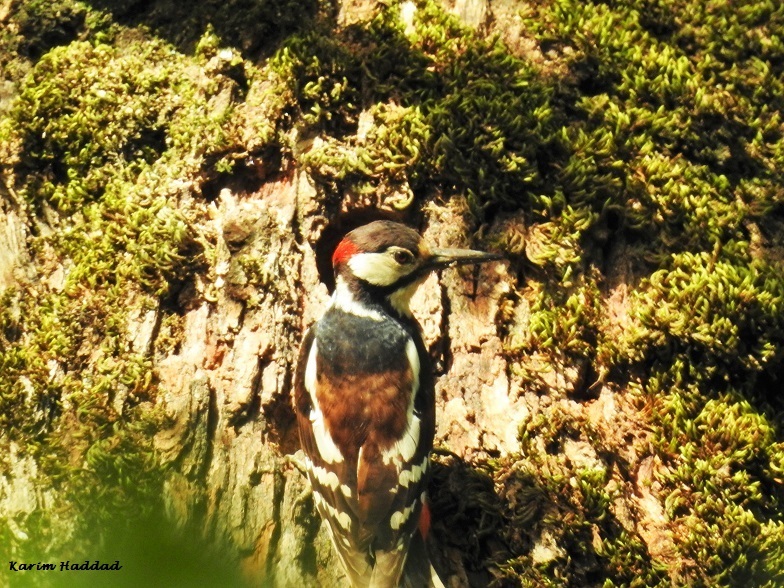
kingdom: Animalia
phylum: Chordata
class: Aves
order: Piciformes
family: Picidae
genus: Dendrocopos
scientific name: Dendrocopos major
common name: Great spotted woodpecker
